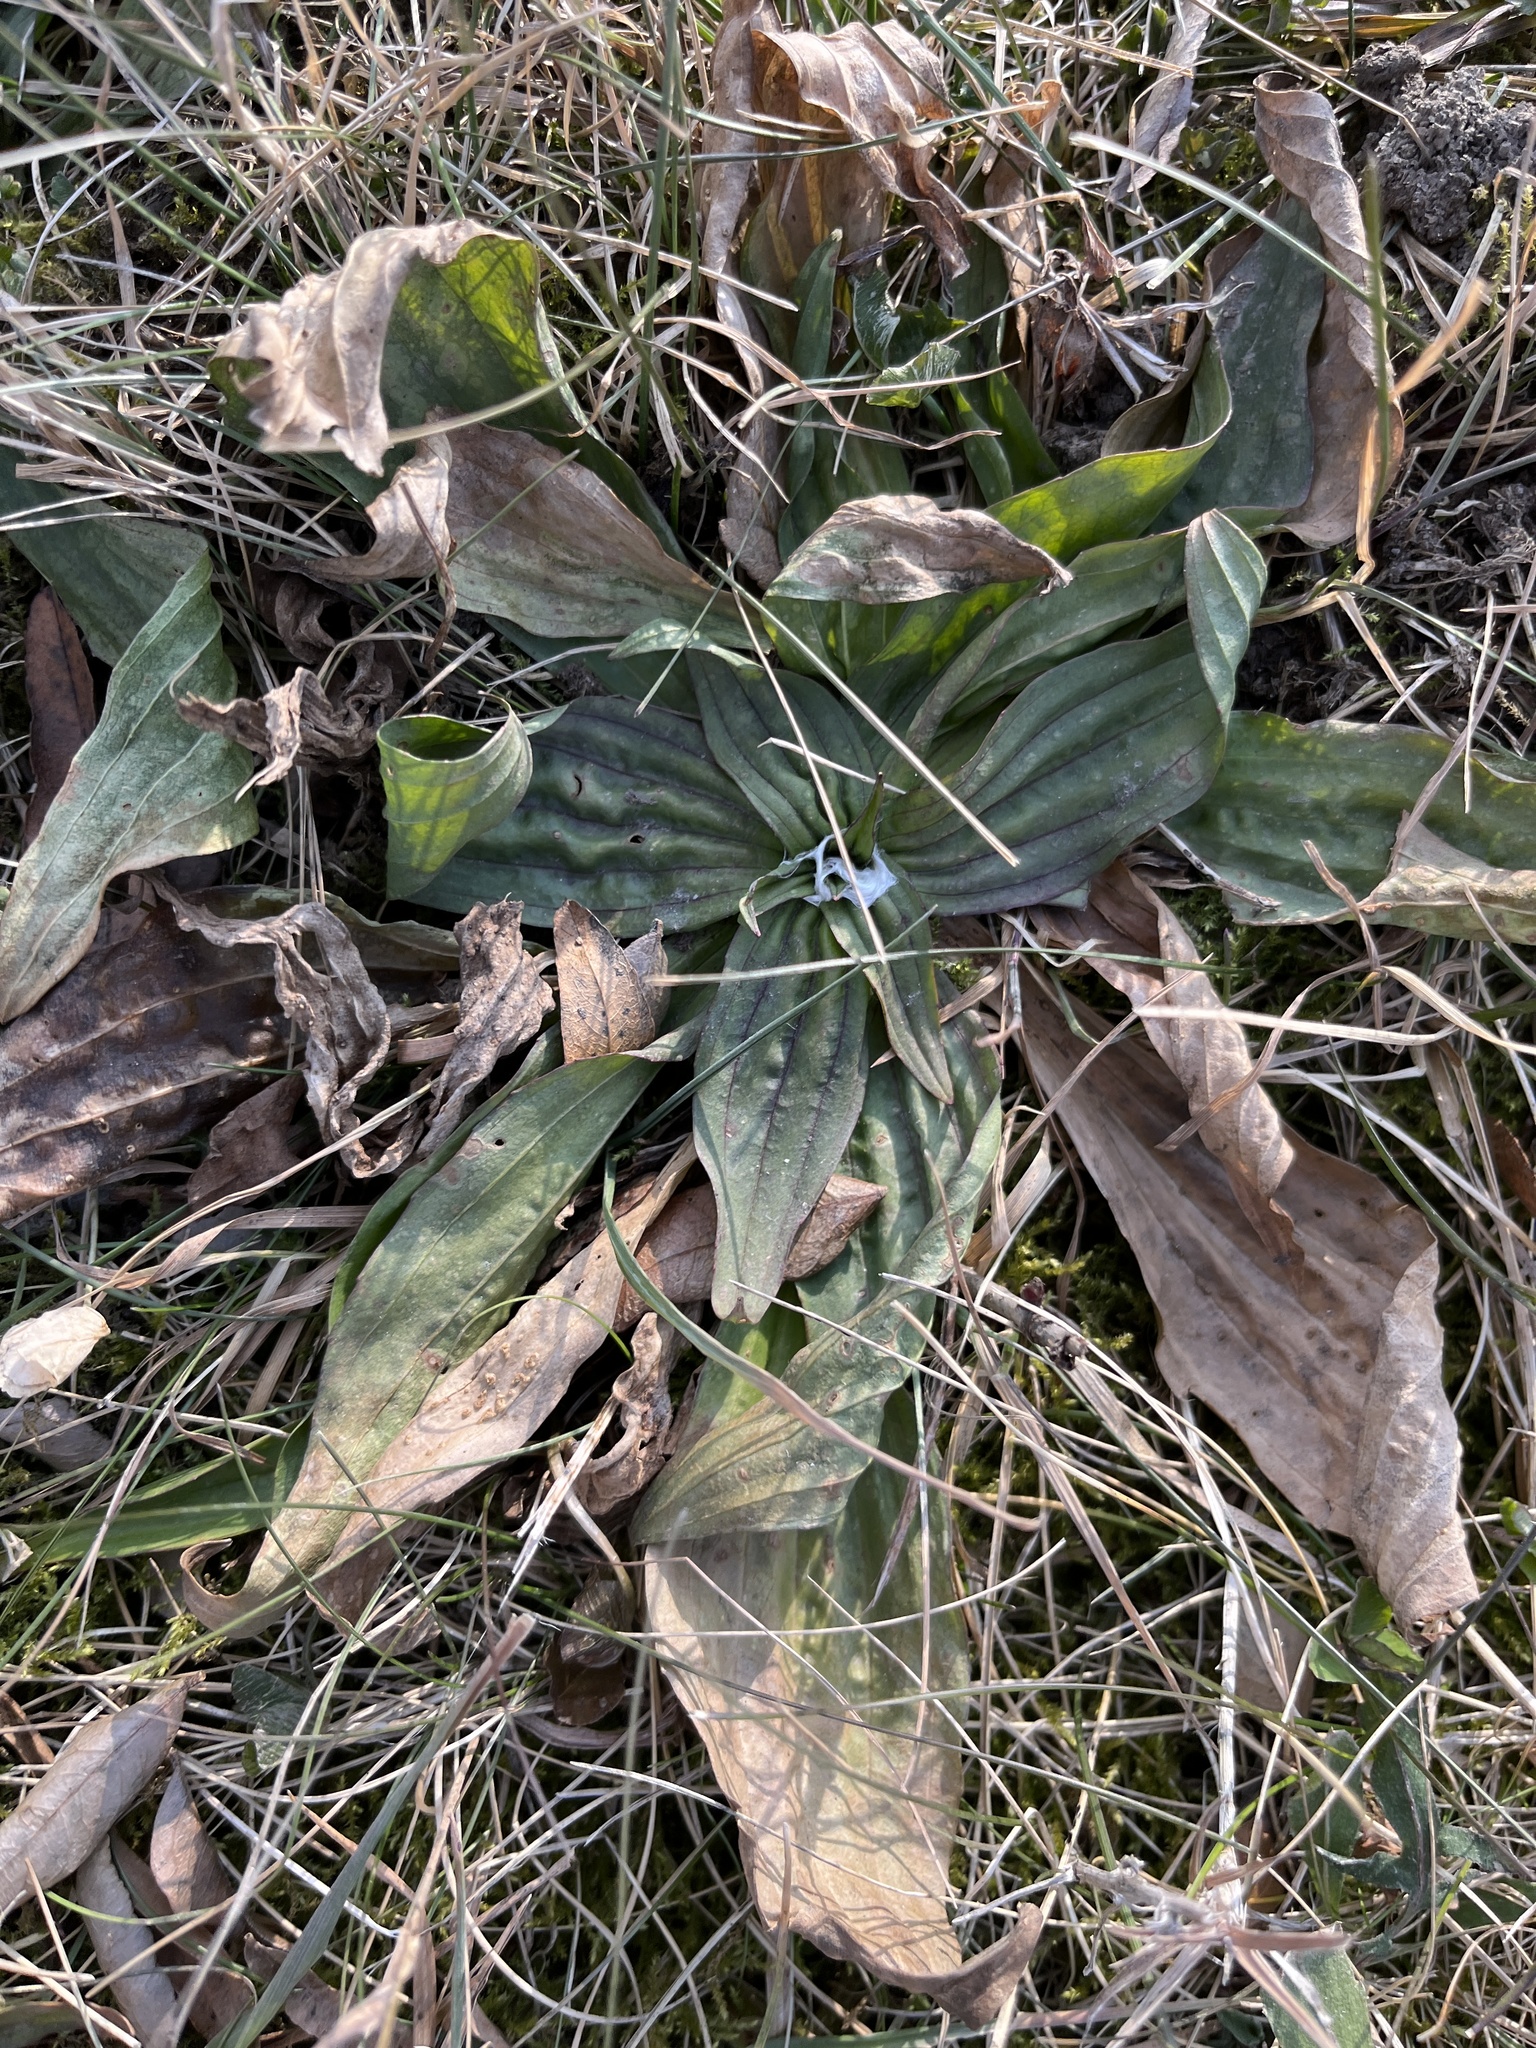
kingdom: Plantae
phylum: Tracheophyta
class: Magnoliopsida
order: Lamiales
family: Plantaginaceae
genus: Plantago
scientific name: Plantago lanceolata
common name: Ribwort plantain
